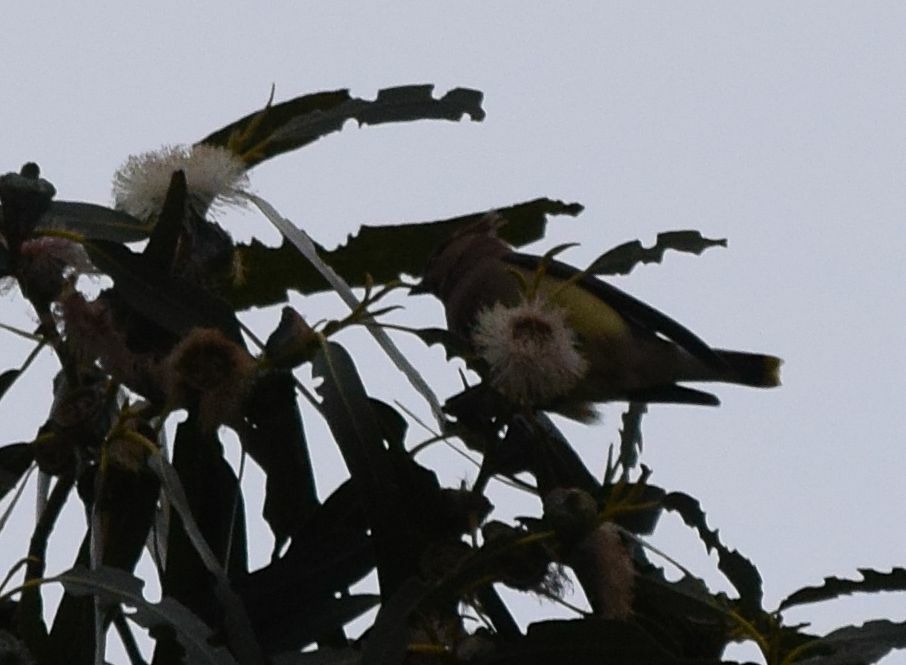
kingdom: Animalia
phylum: Chordata
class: Aves
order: Passeriformes
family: Bombycillidae
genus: Bombycilla
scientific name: Bombycilla cedrorum
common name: Cedar waxwing
